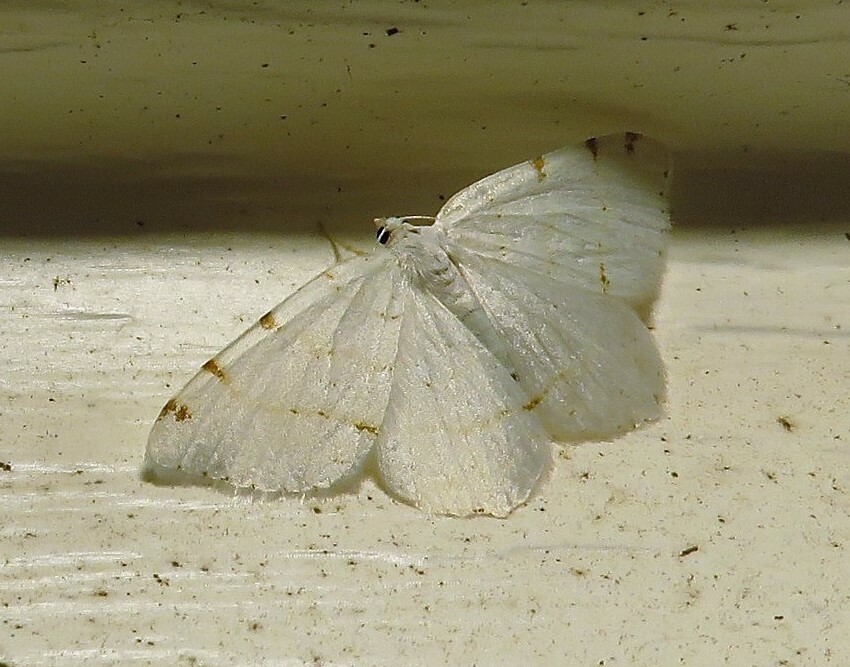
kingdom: Animalia
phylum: Arthropoda
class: Insecta
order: Lepidoptera
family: Geometridae
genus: Macaria
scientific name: Macaria pustularia
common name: Lesser maple spanworm moth
